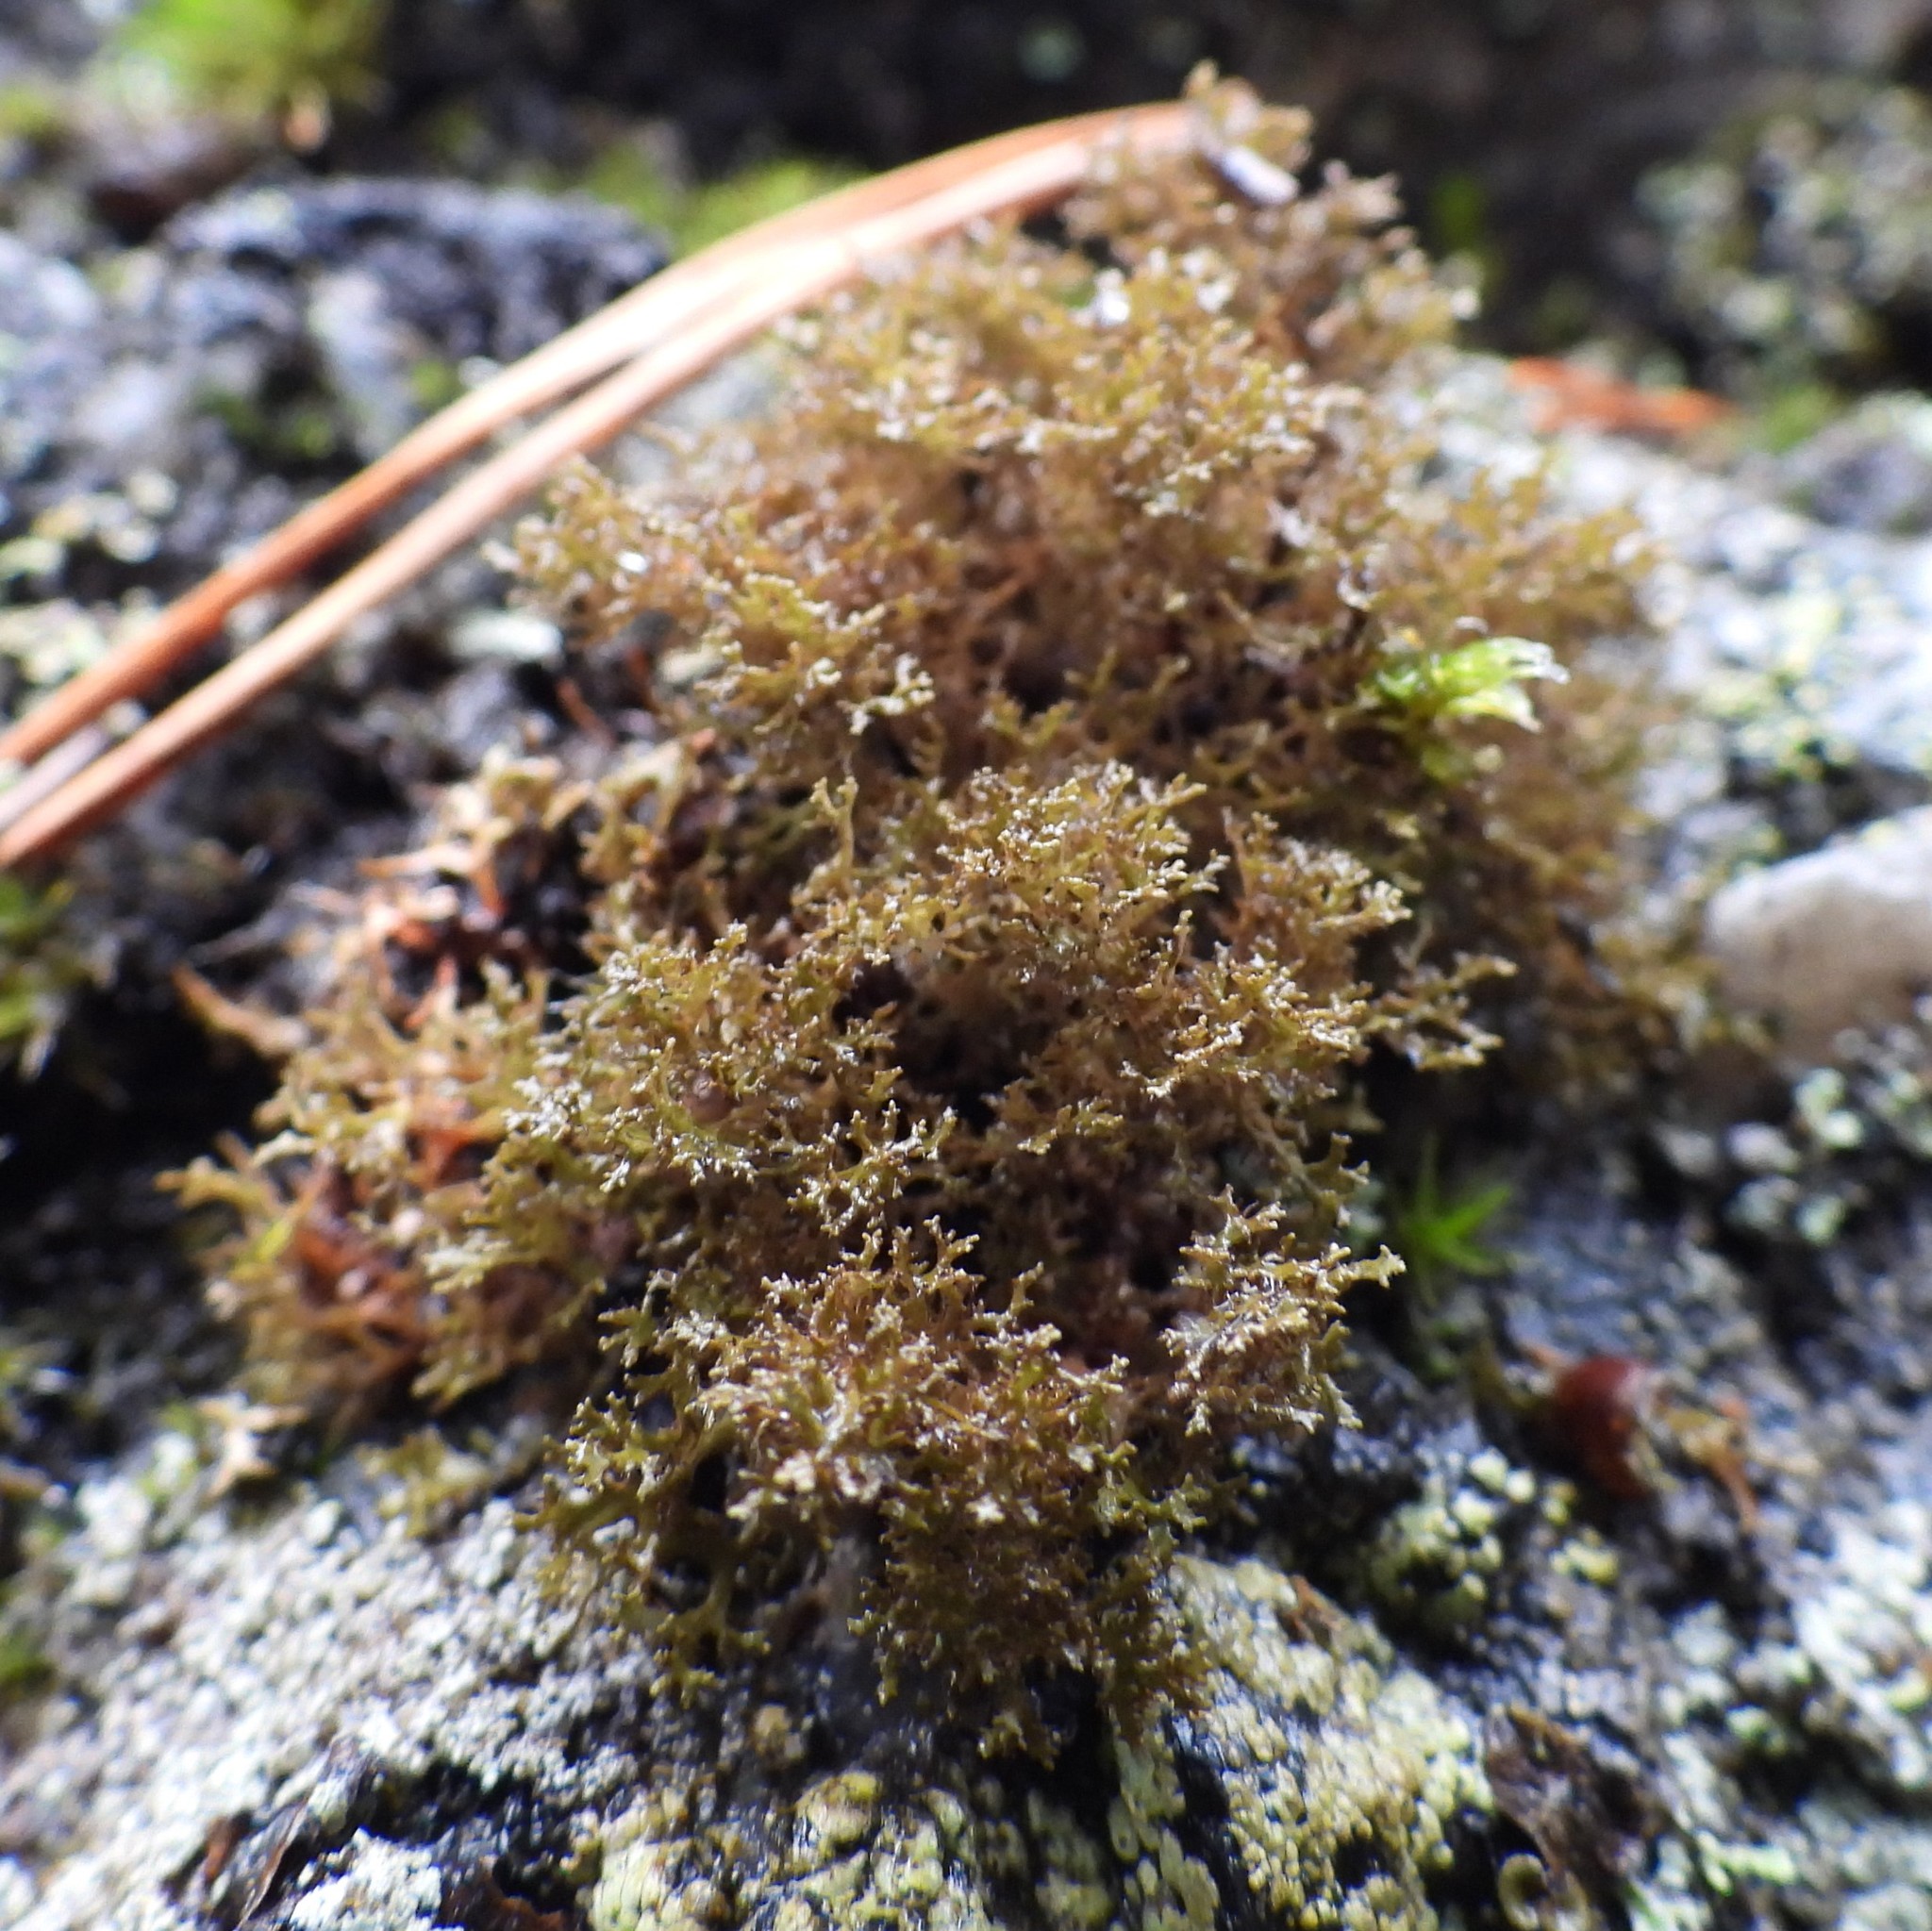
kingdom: Fungi
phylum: Ascomycota
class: Lecanoromycetes
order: Lecanorales
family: Parmeliaceae
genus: Cetraria
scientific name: Cetraria odontella
